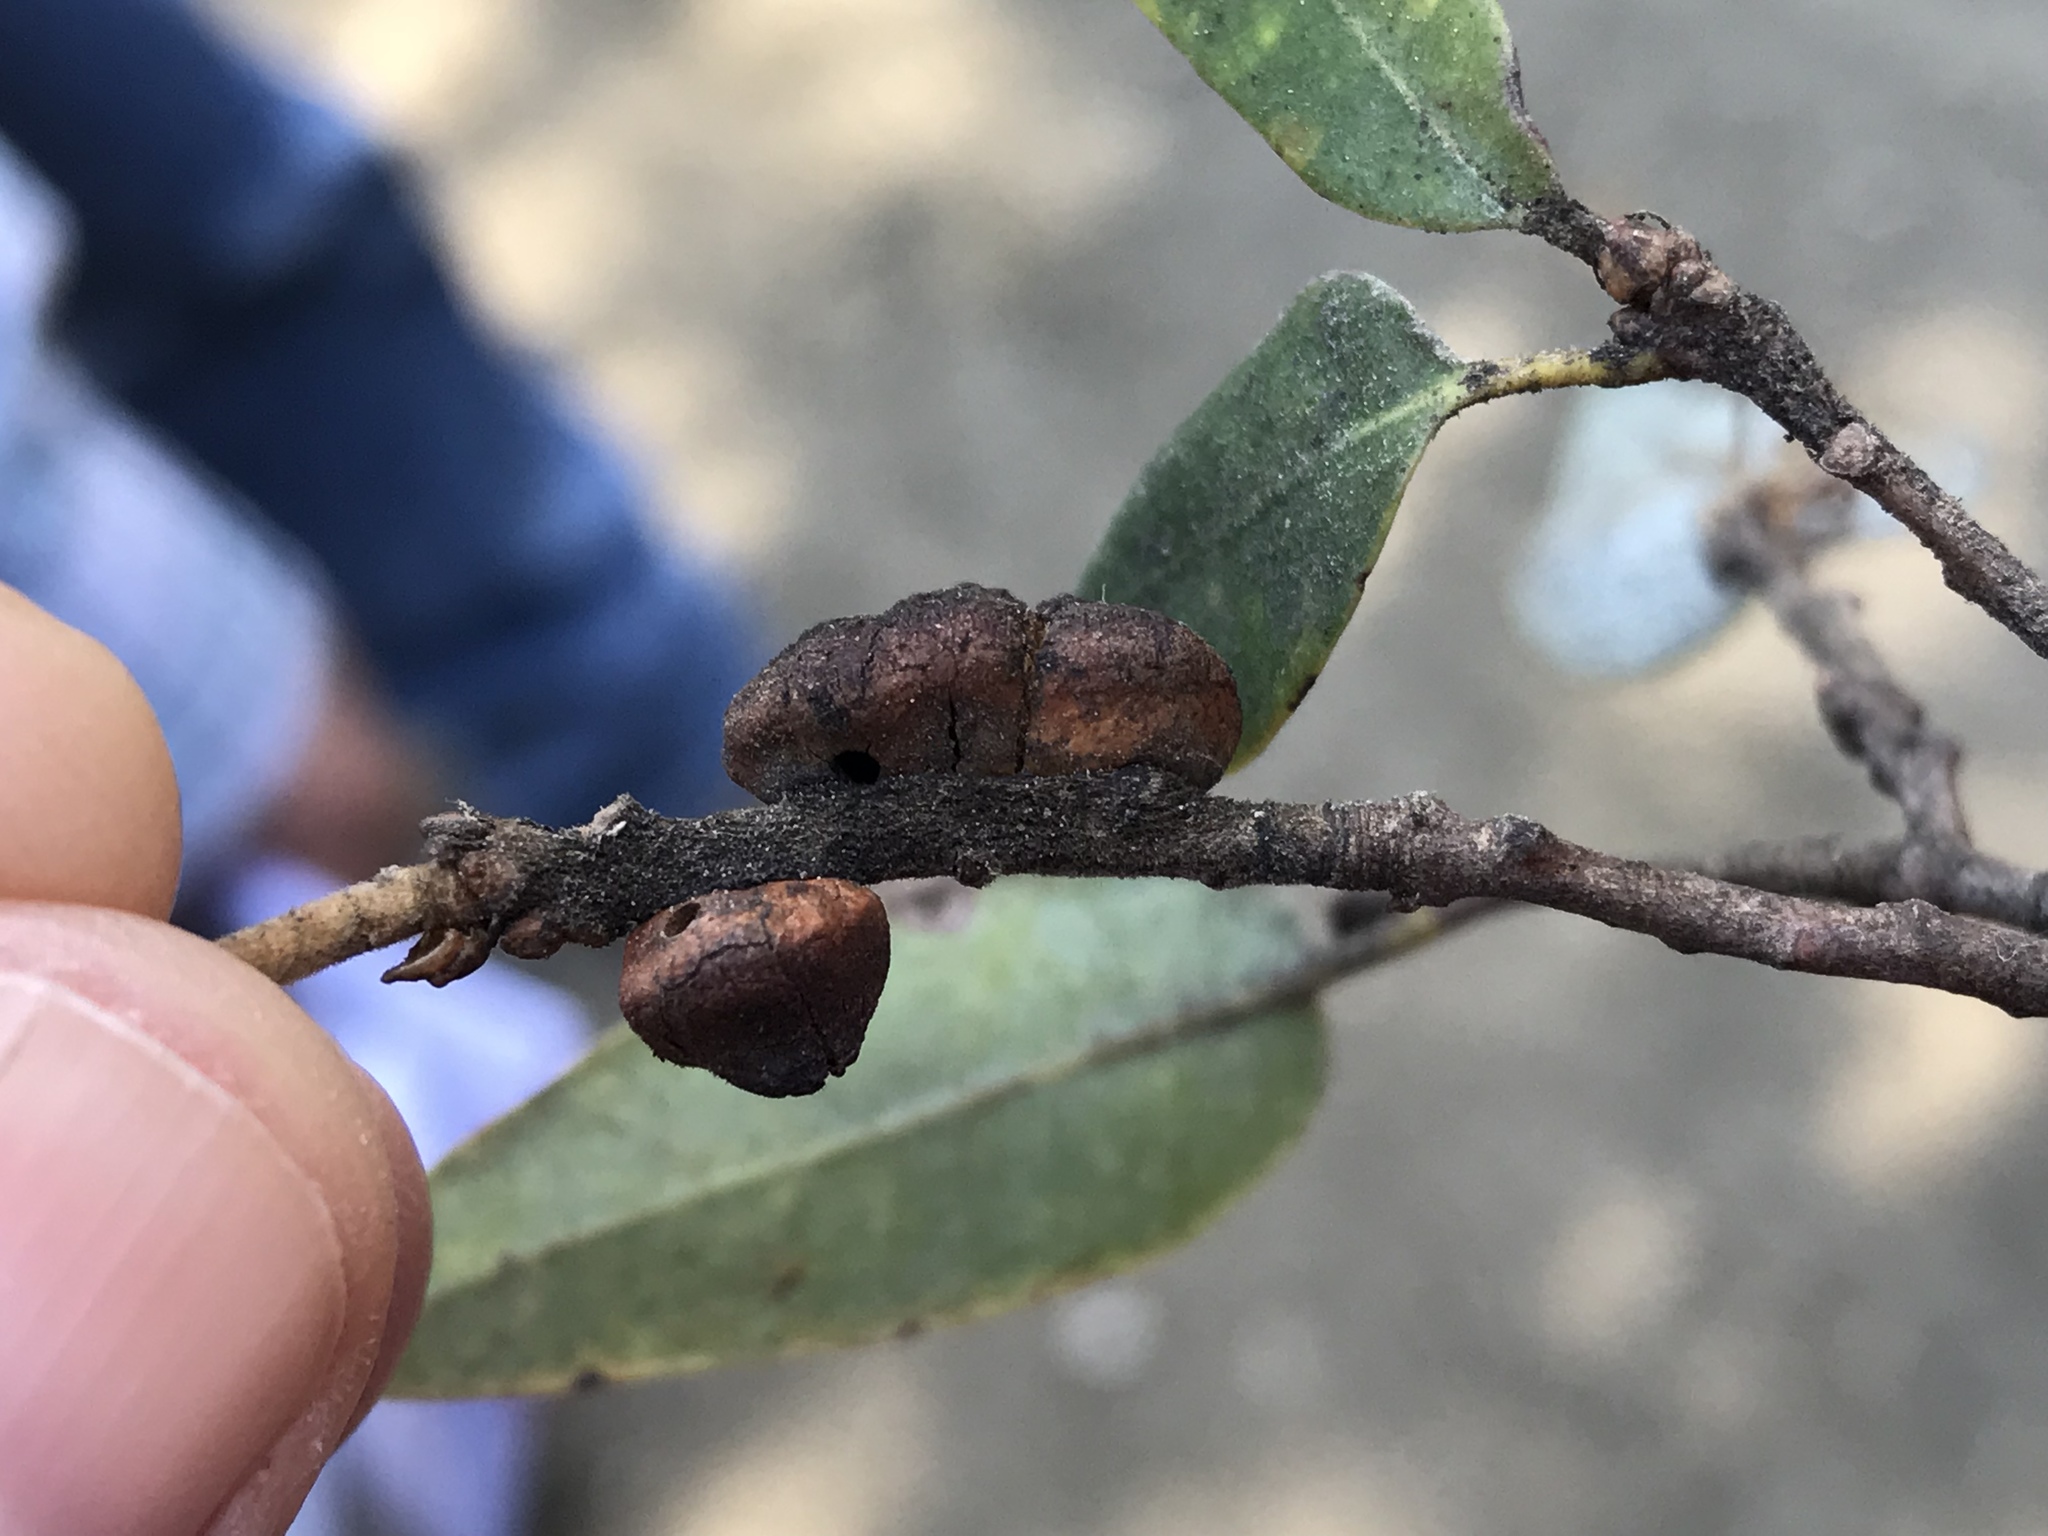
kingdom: Animalia
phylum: Arthropoda
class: Insecta
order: Hymenoptera
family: Cynipidae
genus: Disholandricus
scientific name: Disholandricus
